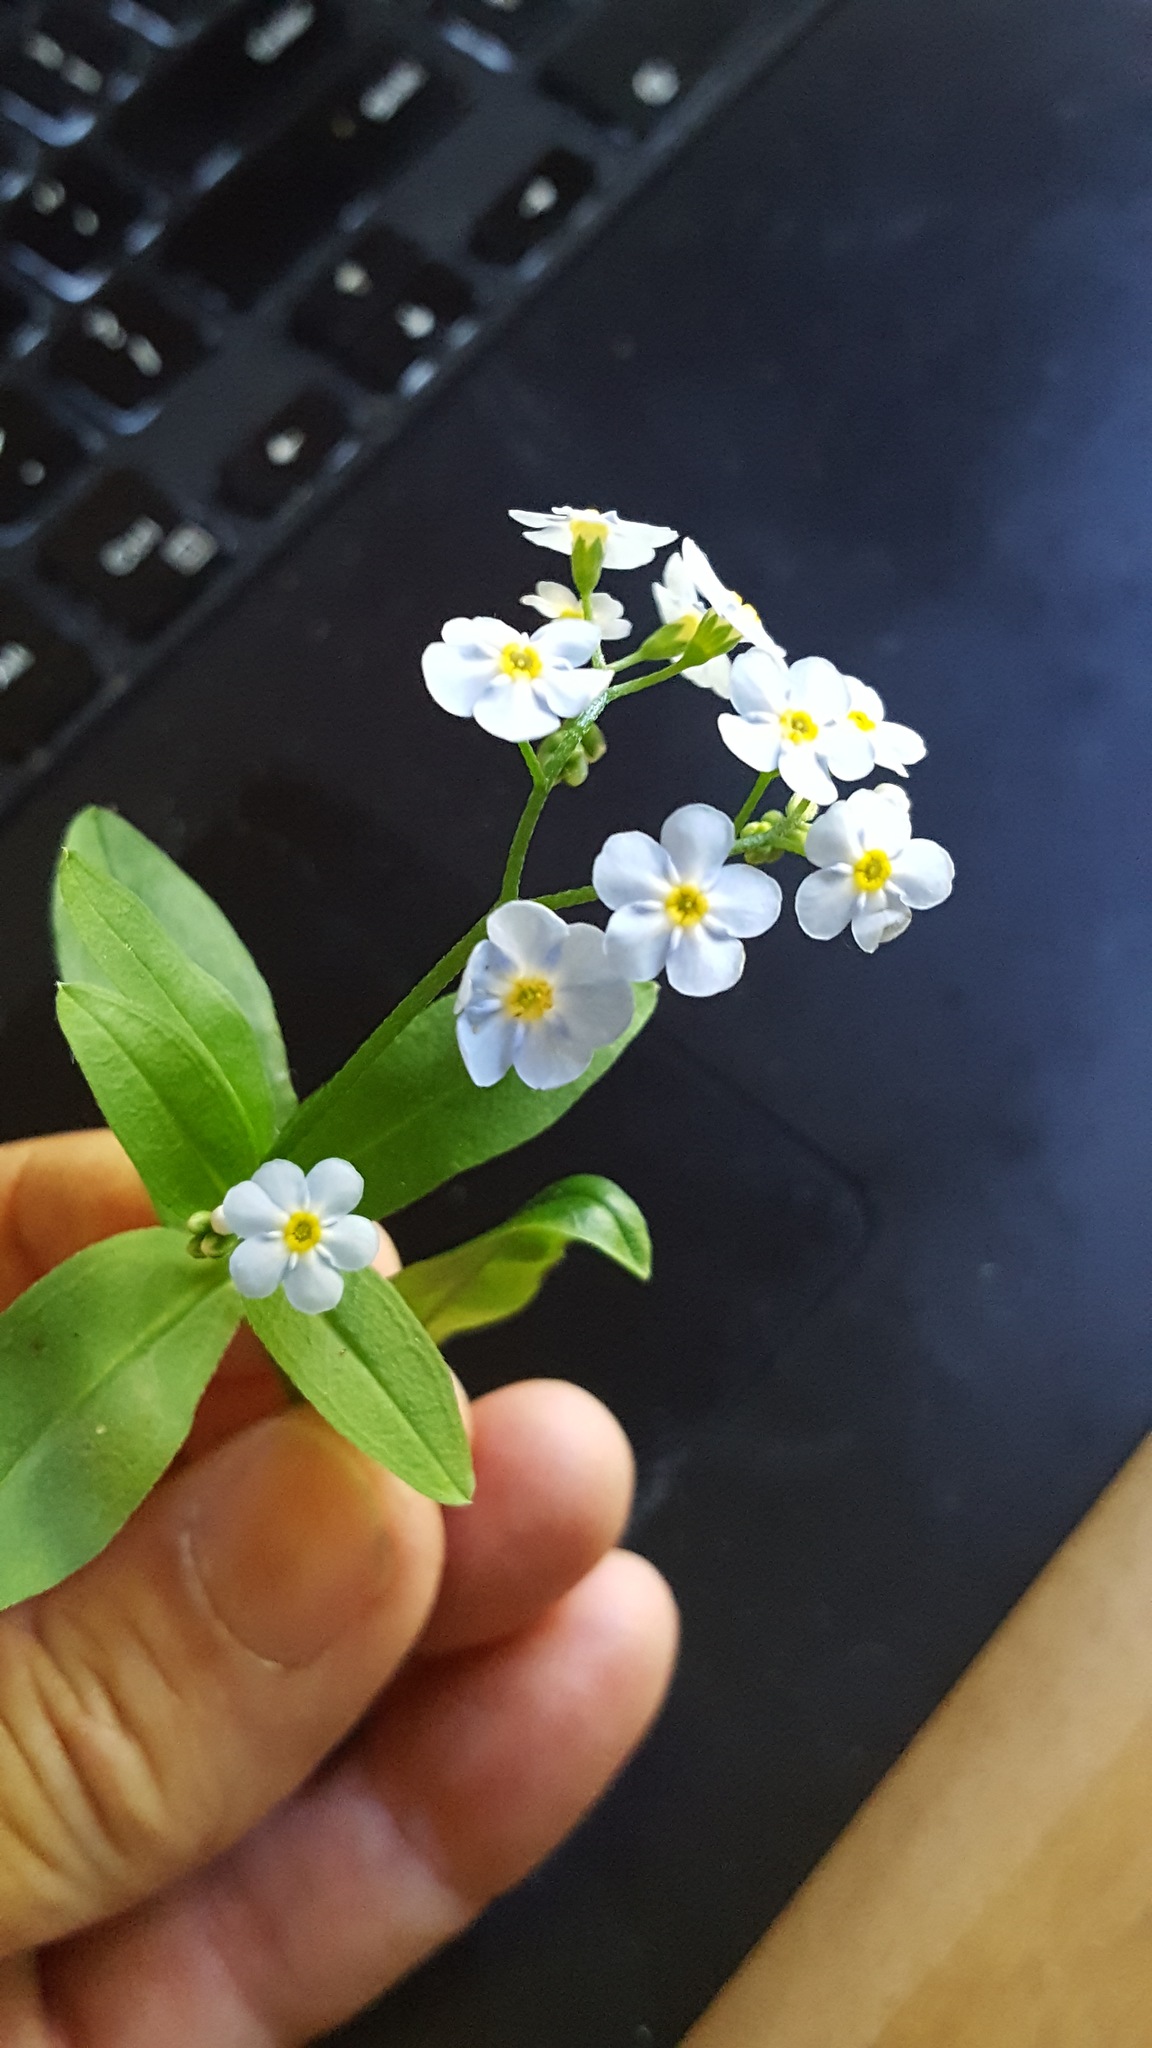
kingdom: Plantae
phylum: Tracheophyta
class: Magnoliopsida
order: Boraginales
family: Boraginaceae
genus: Myosotis
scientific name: Myosotis scorpioides
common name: Water forget-me-not
